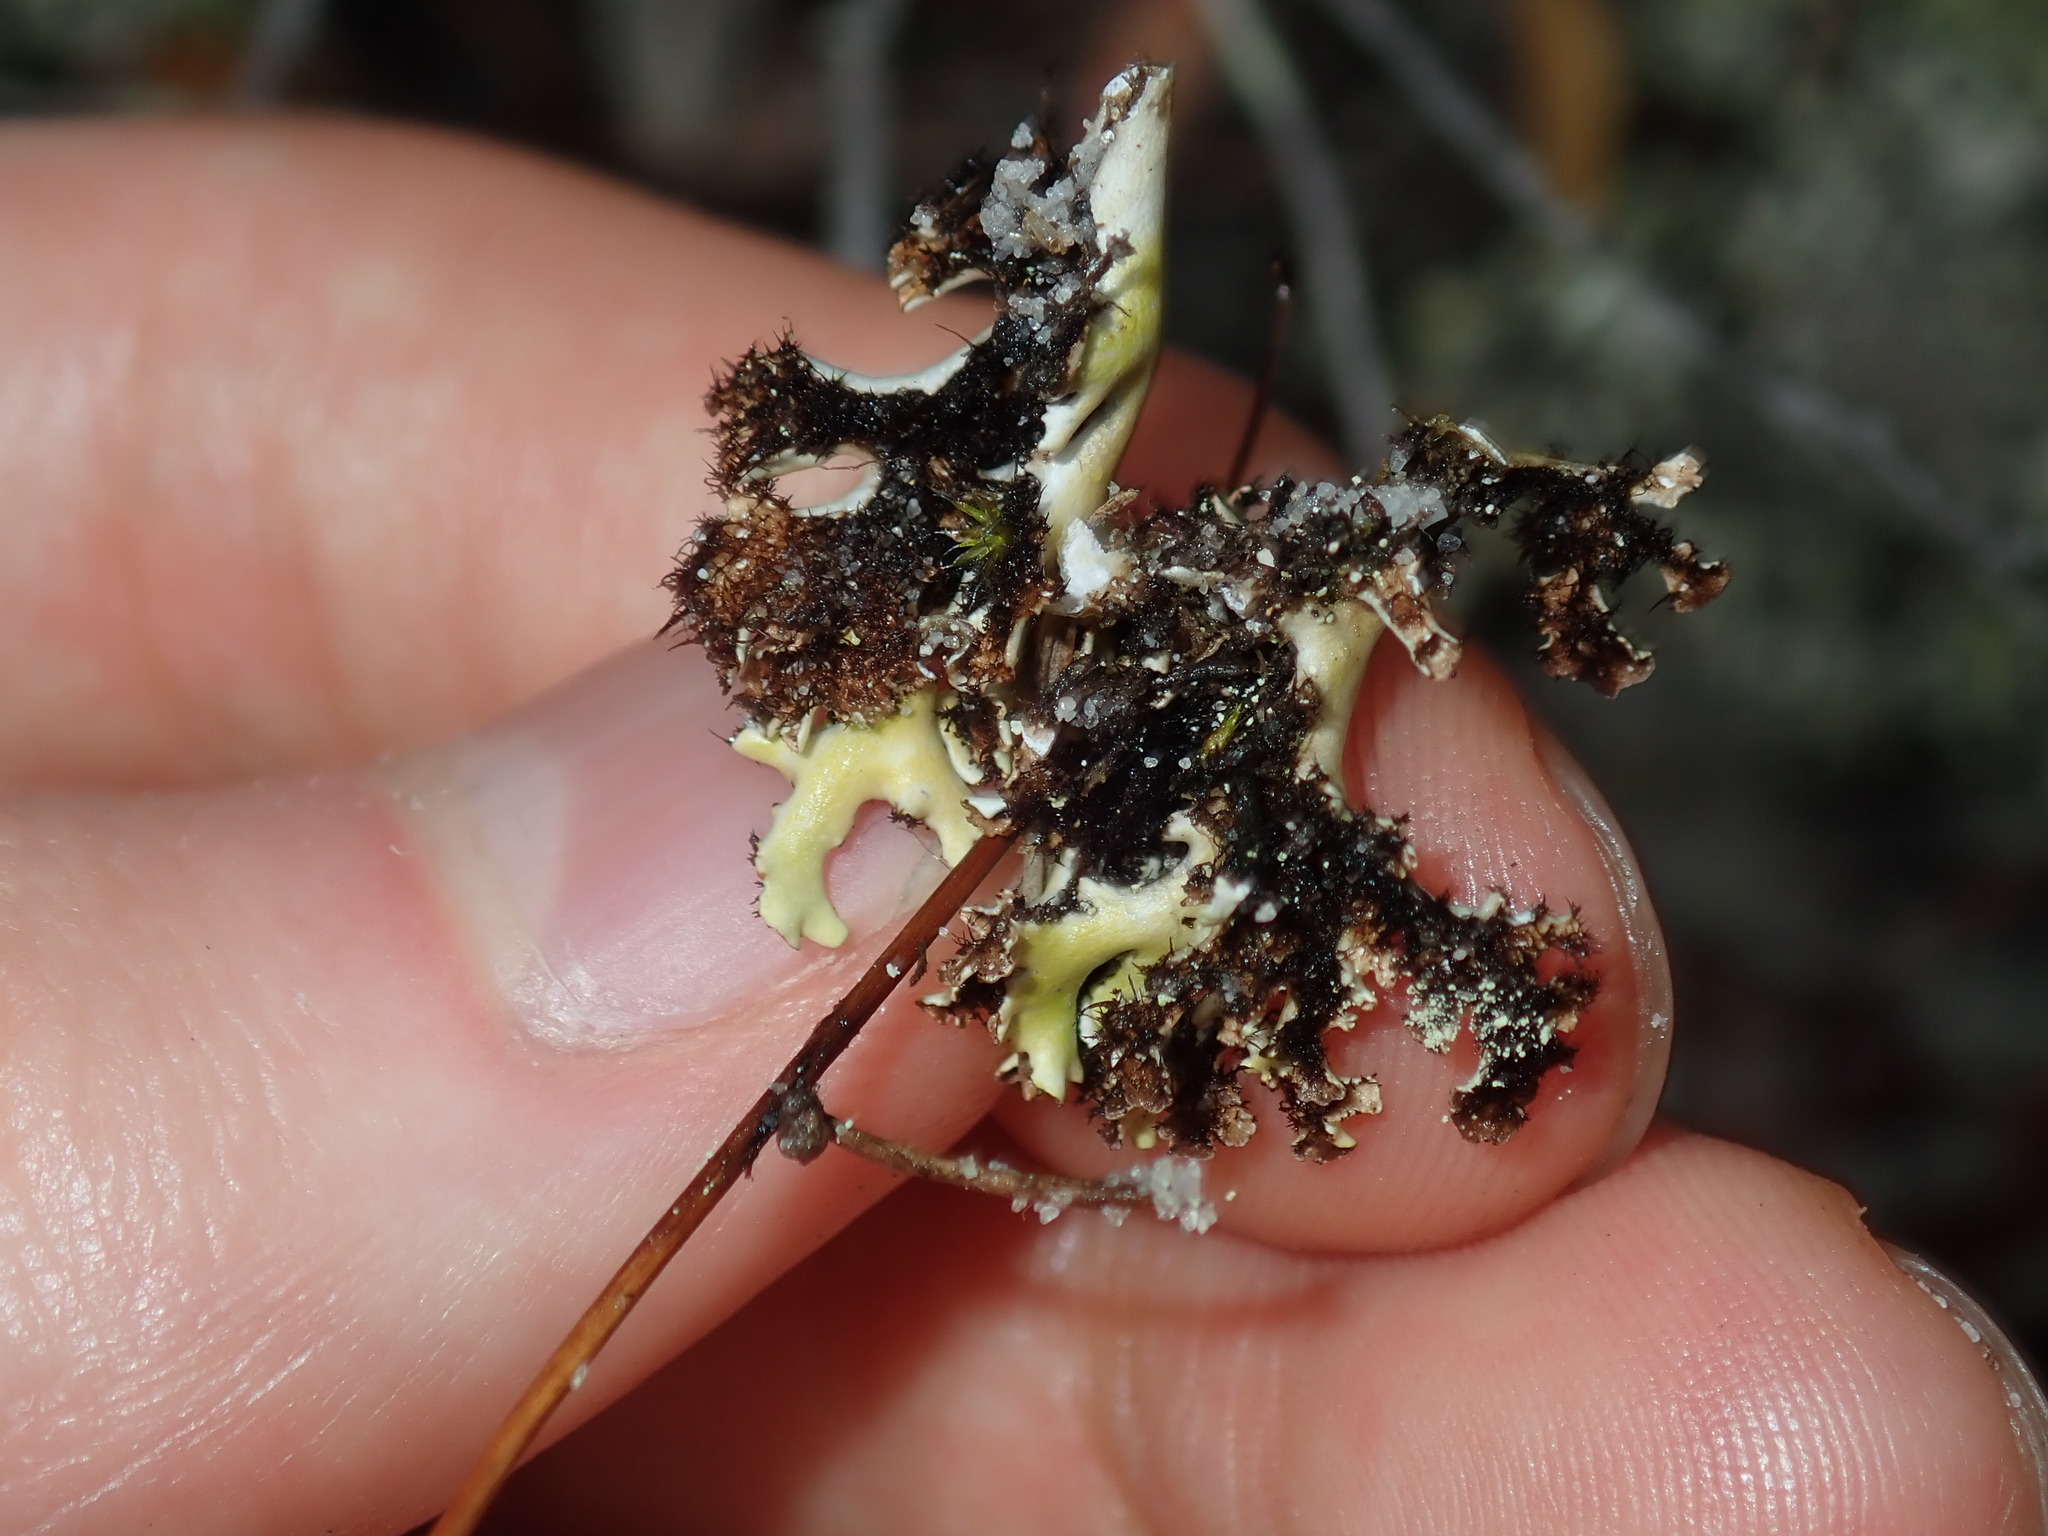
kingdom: Fungi
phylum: Ascomycota
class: Lecanoromycetes
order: Lecanorales
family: Cladoniaceae
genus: Cladia
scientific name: Cladia muelleri
